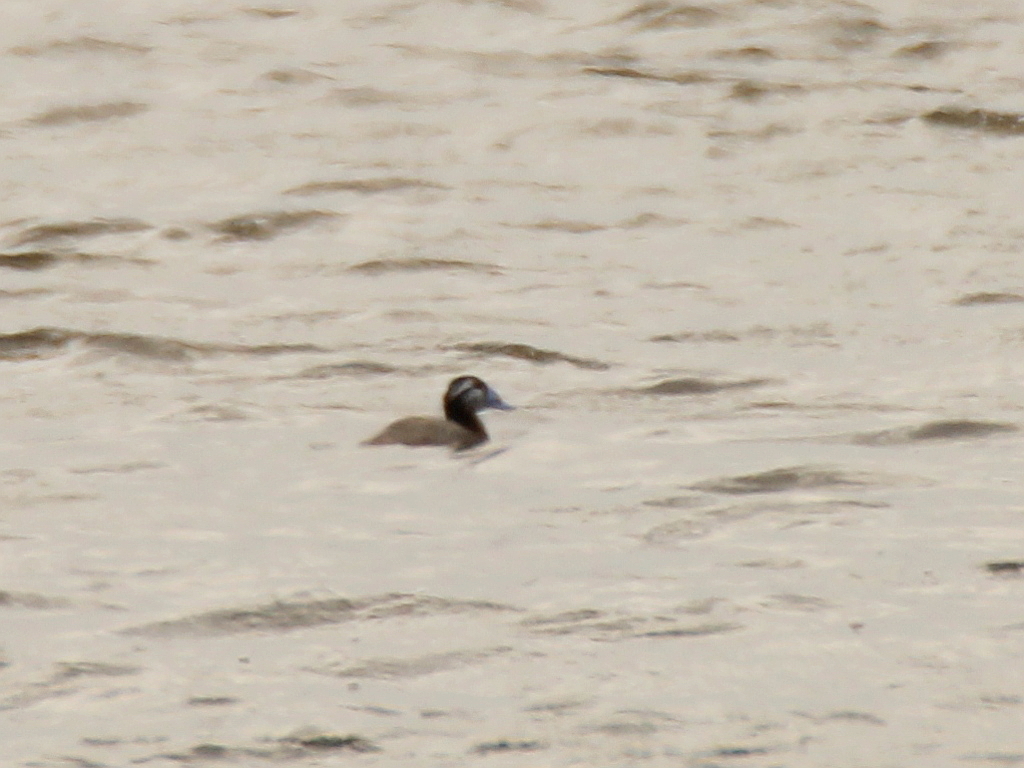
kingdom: Animalia
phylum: Chordata
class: Aves
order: Anseriformes
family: Anatidae
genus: Oxyura
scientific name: Oxyura leucocephala
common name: White-headed duck
